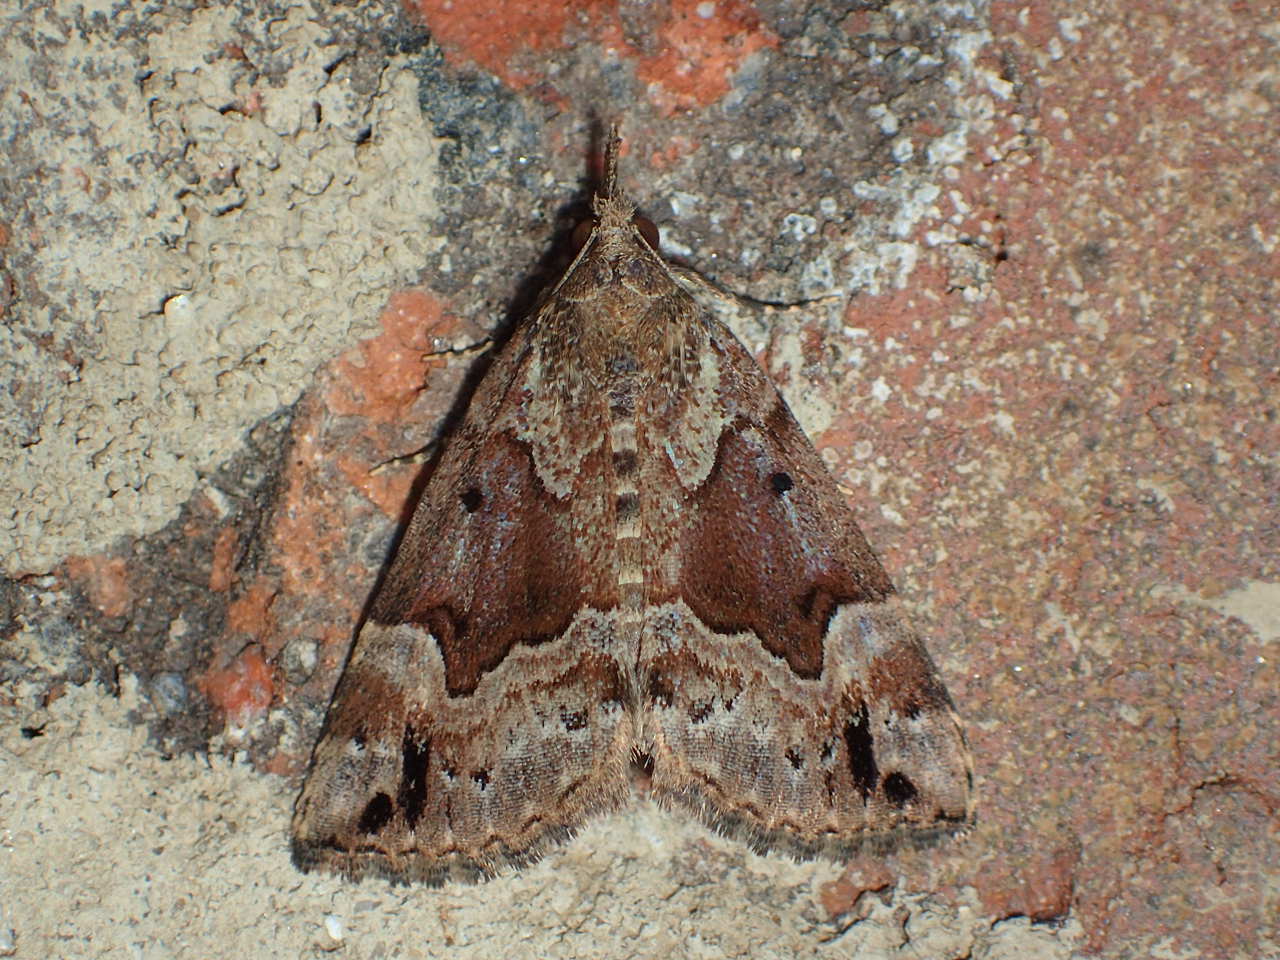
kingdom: Animalia
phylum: Arthropoda
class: Insecta
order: Lepidoptera
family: Erebidae
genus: Hypena
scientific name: Hypena palparia
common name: Mottled bomolocha moth
